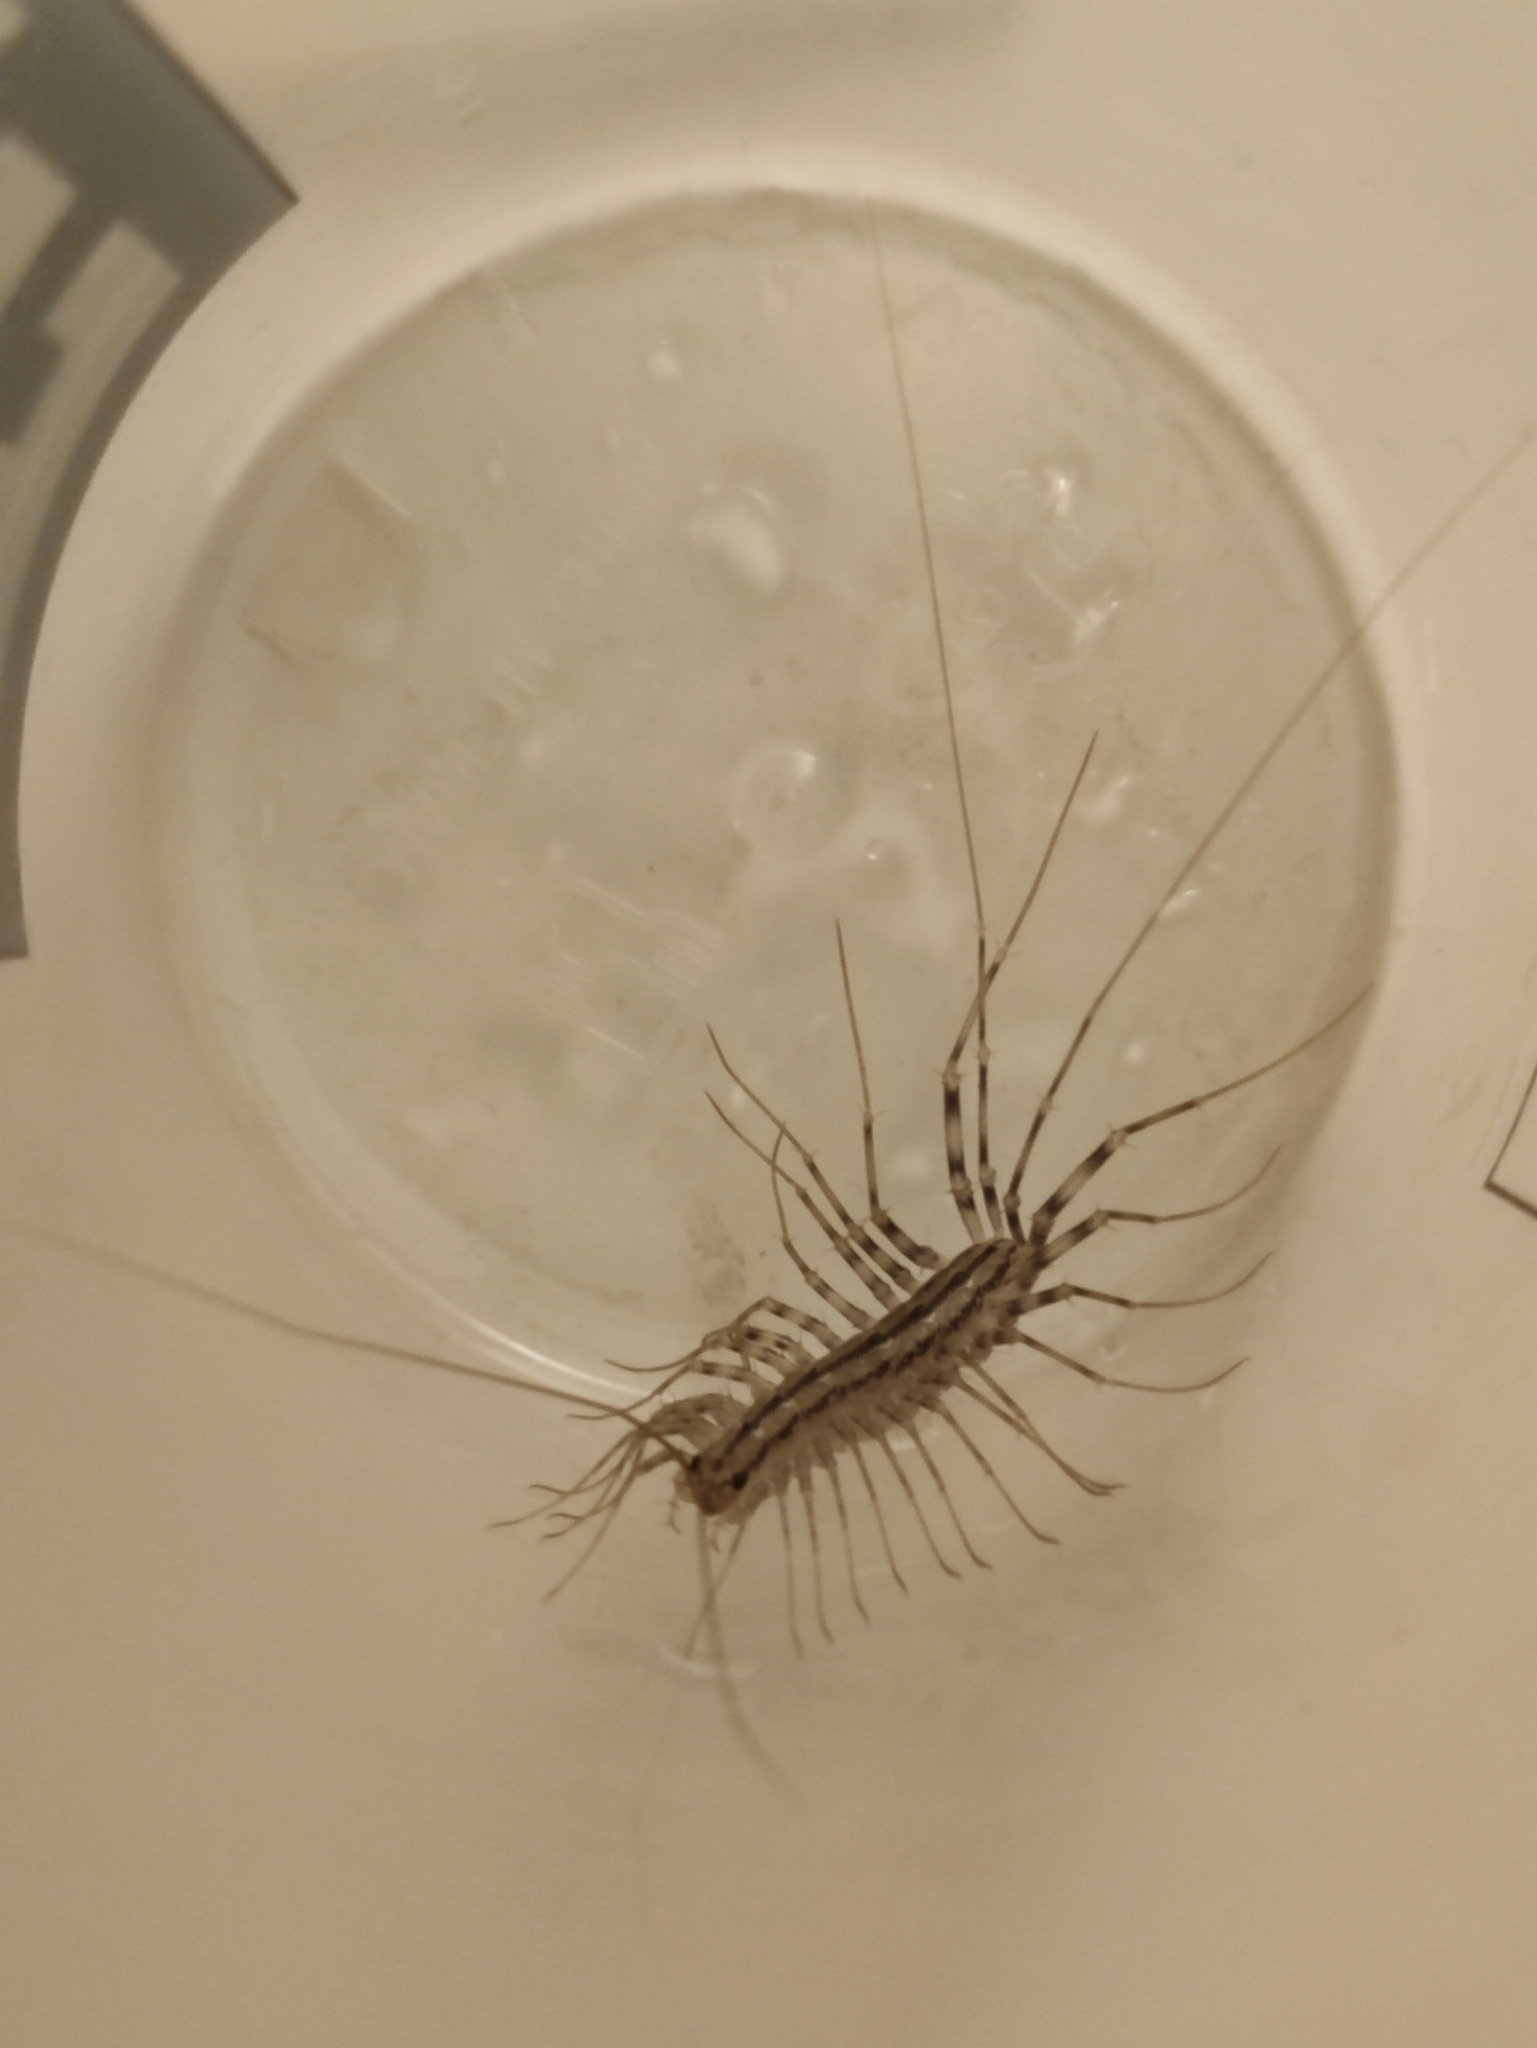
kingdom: Animalia
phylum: Arthropoda
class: Chilopoda
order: Scutigeromorpha
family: Scutigeridae
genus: Scutigera
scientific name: Scutigera coleoptrata
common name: House centipede
